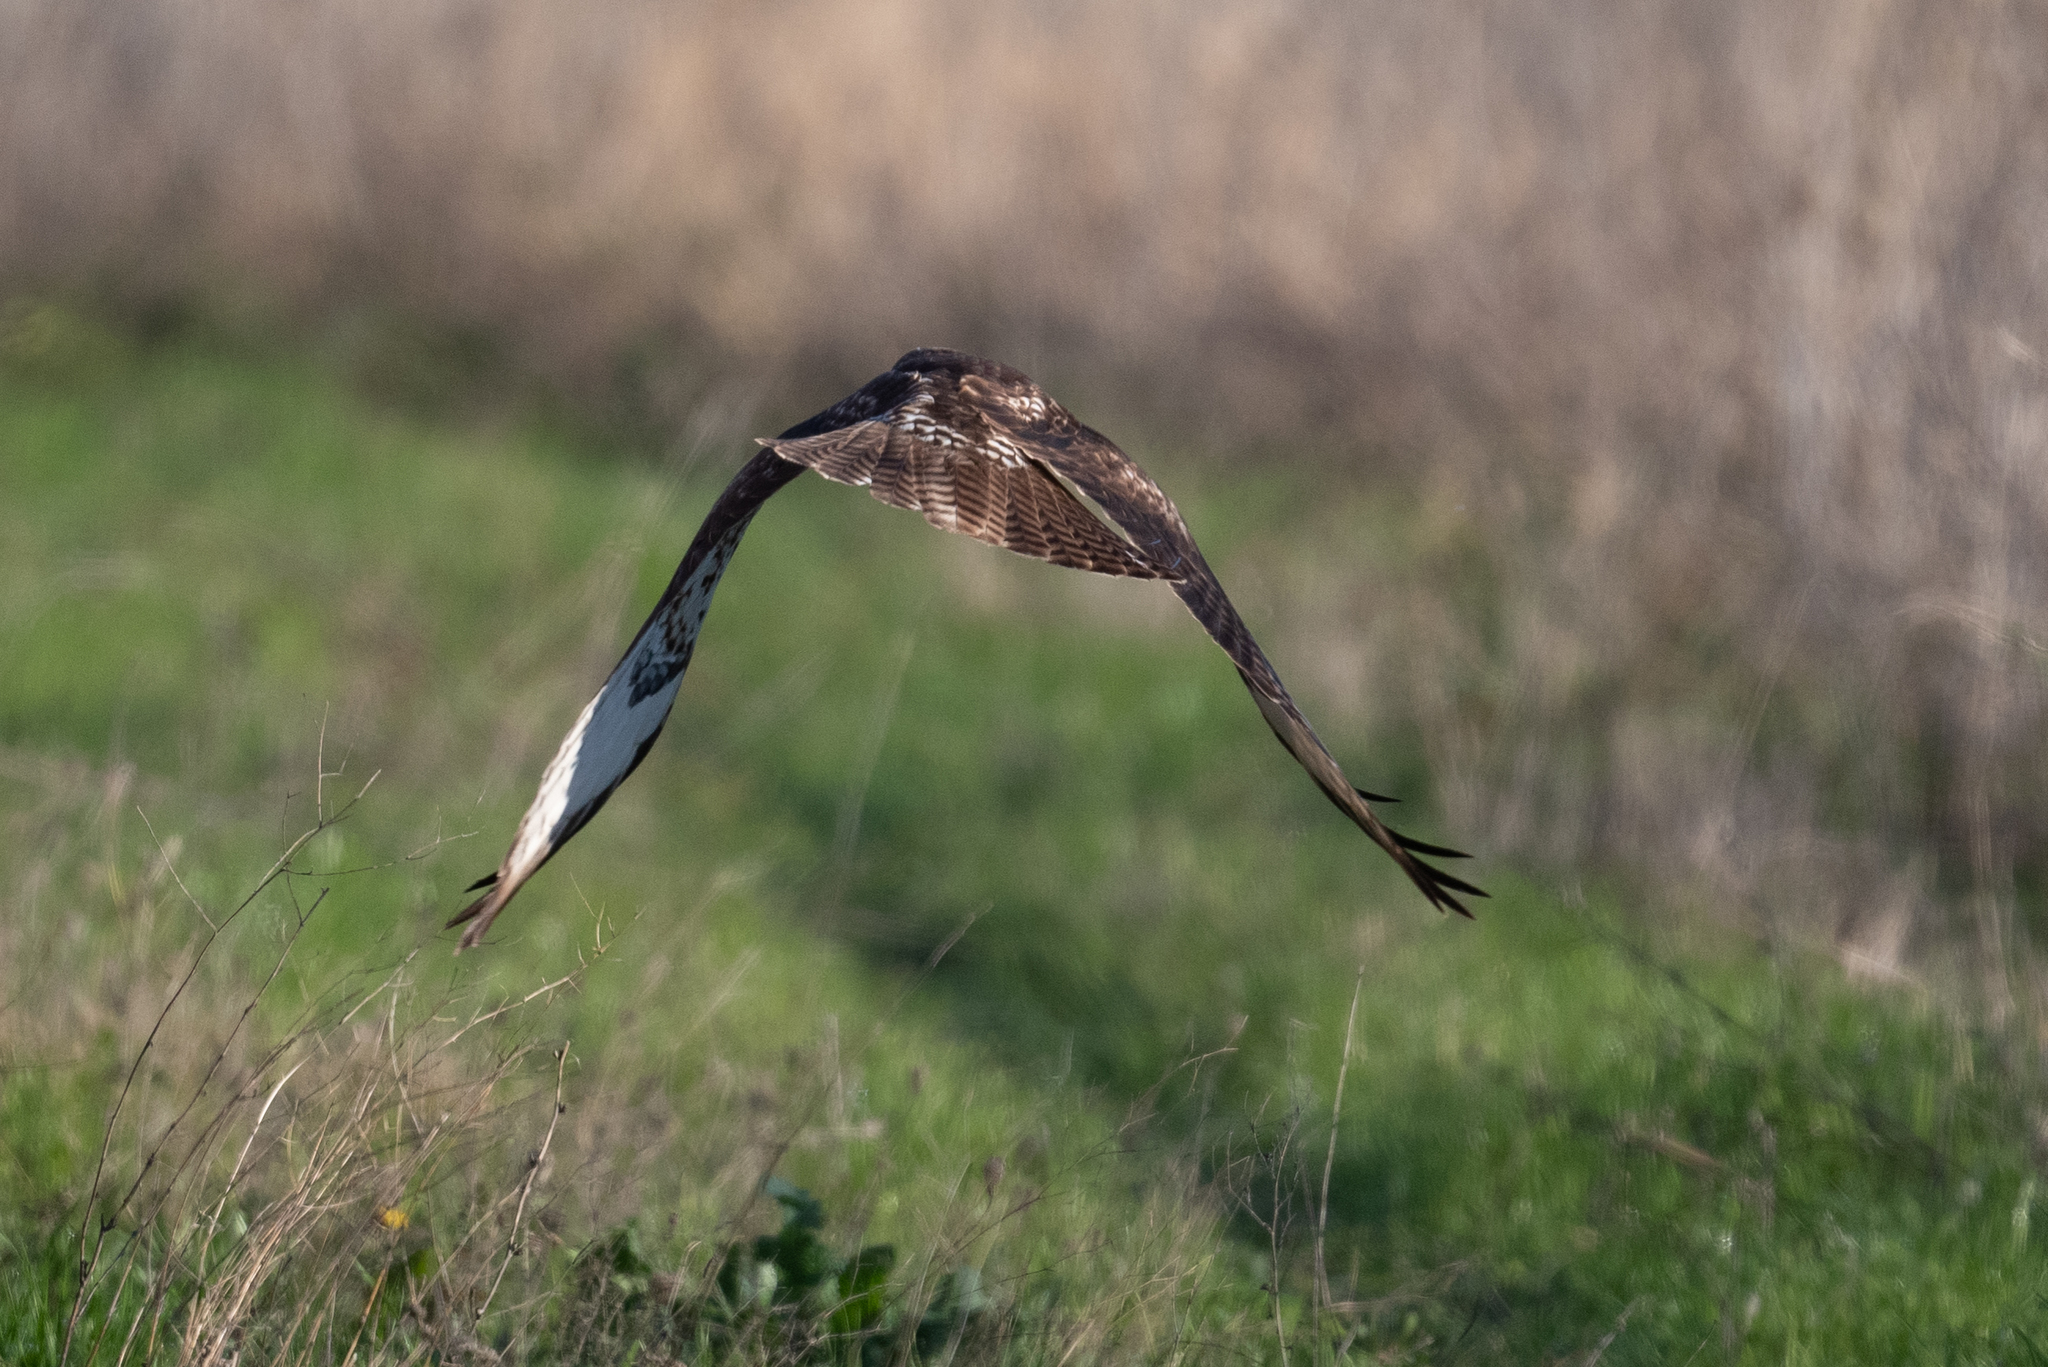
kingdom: Animalia
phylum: Chordata
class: Aves
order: Accipitriformes
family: Accipitridae
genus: Buteo
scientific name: Buteo jamaicensis
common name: Red-tailed hawk
